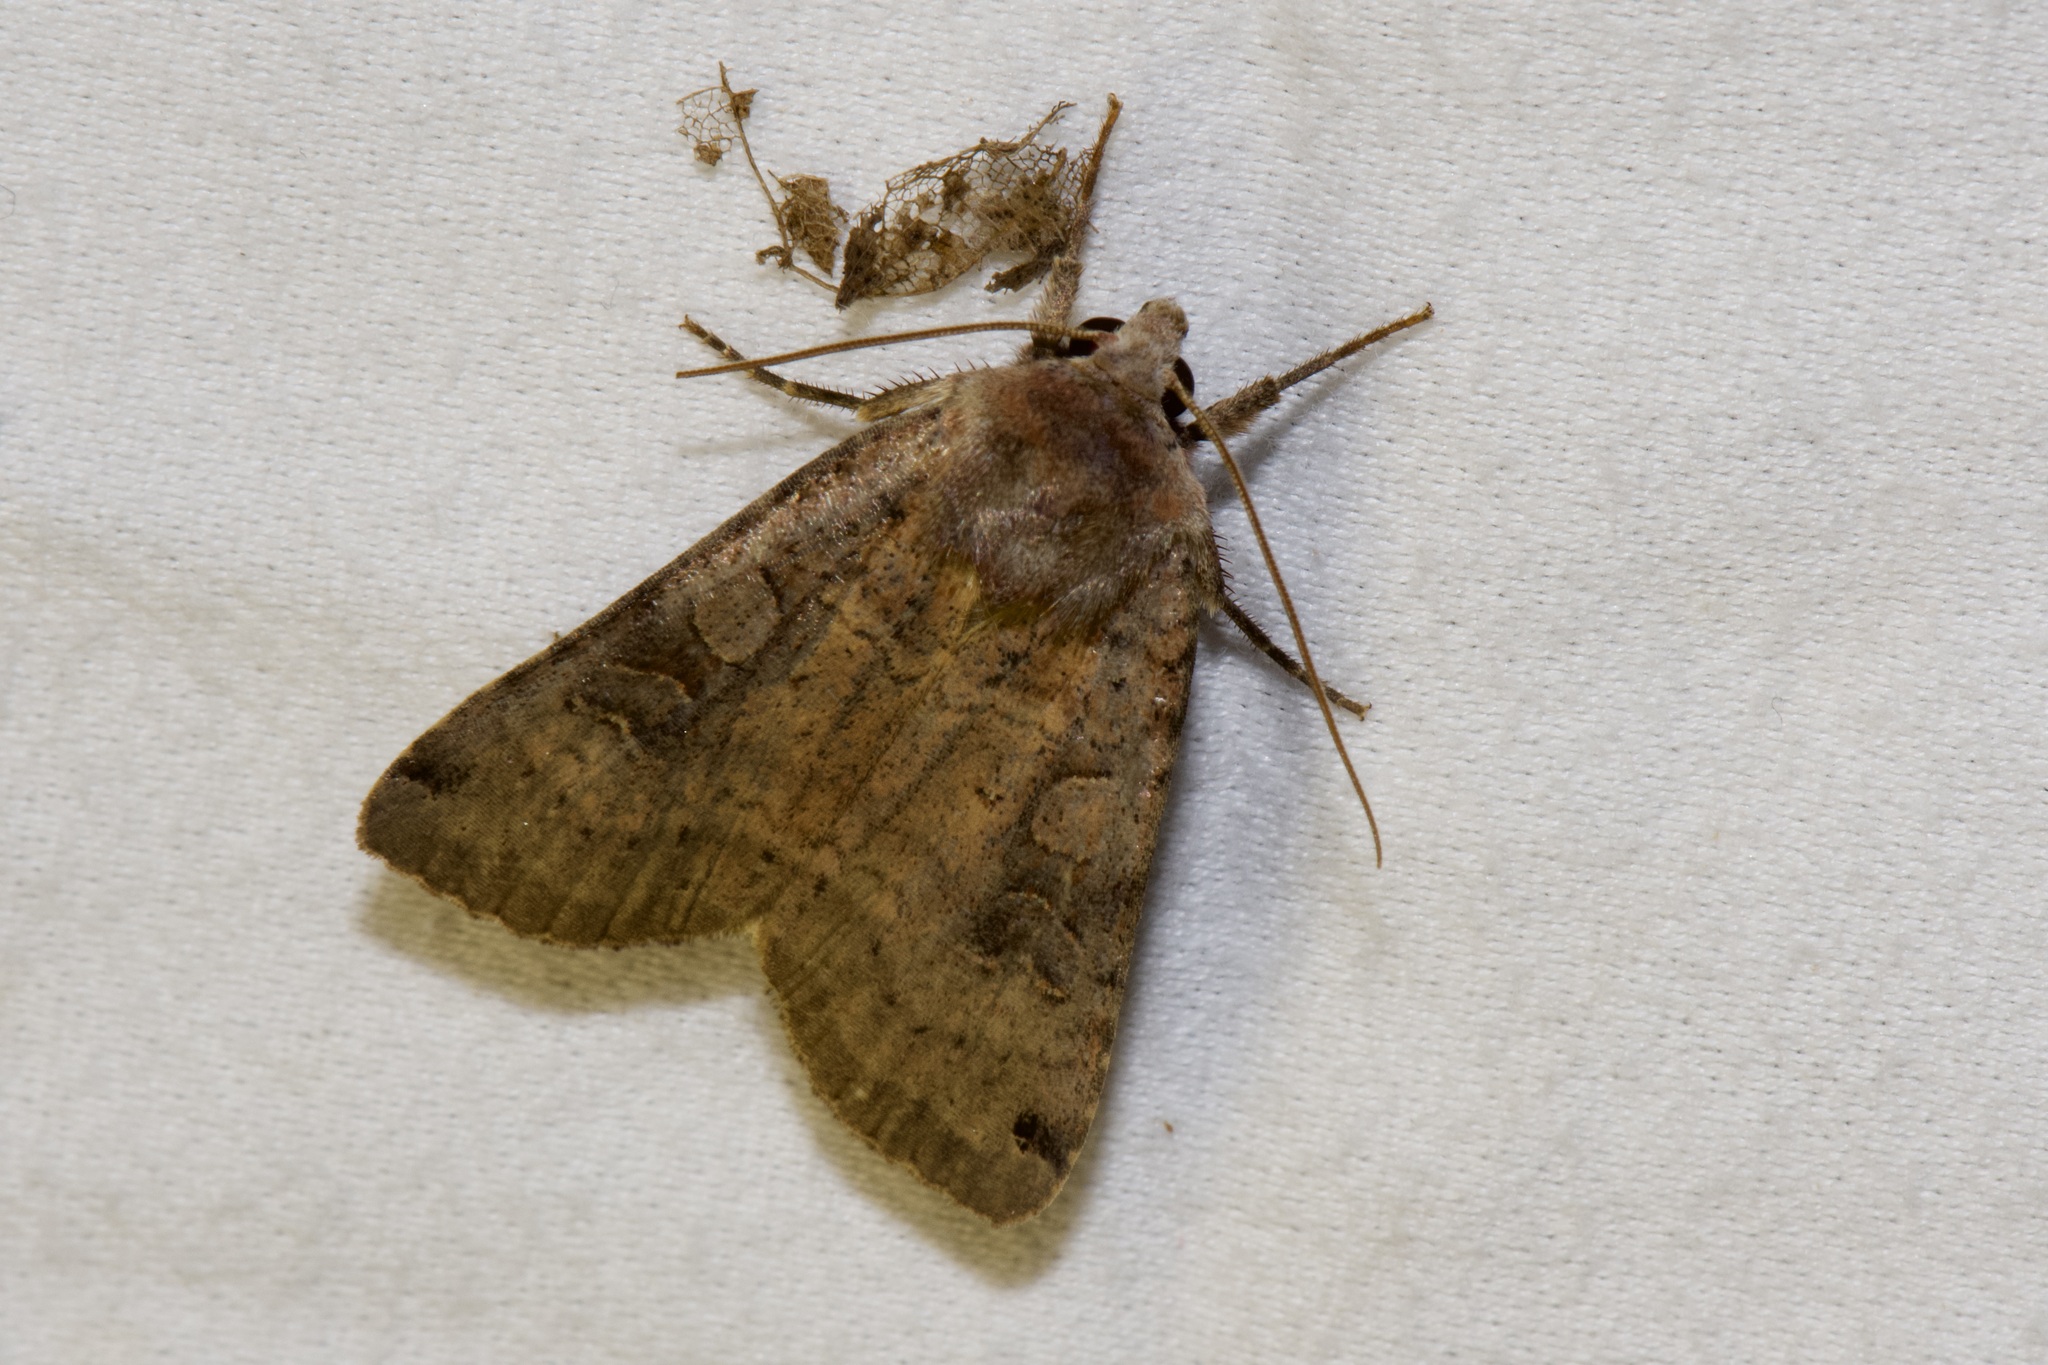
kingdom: Animalia
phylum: Arthropoda
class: Insecta
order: Lepidoptera
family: Noctuidae
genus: Xestia
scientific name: Xestia smithii
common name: Smith's dart
